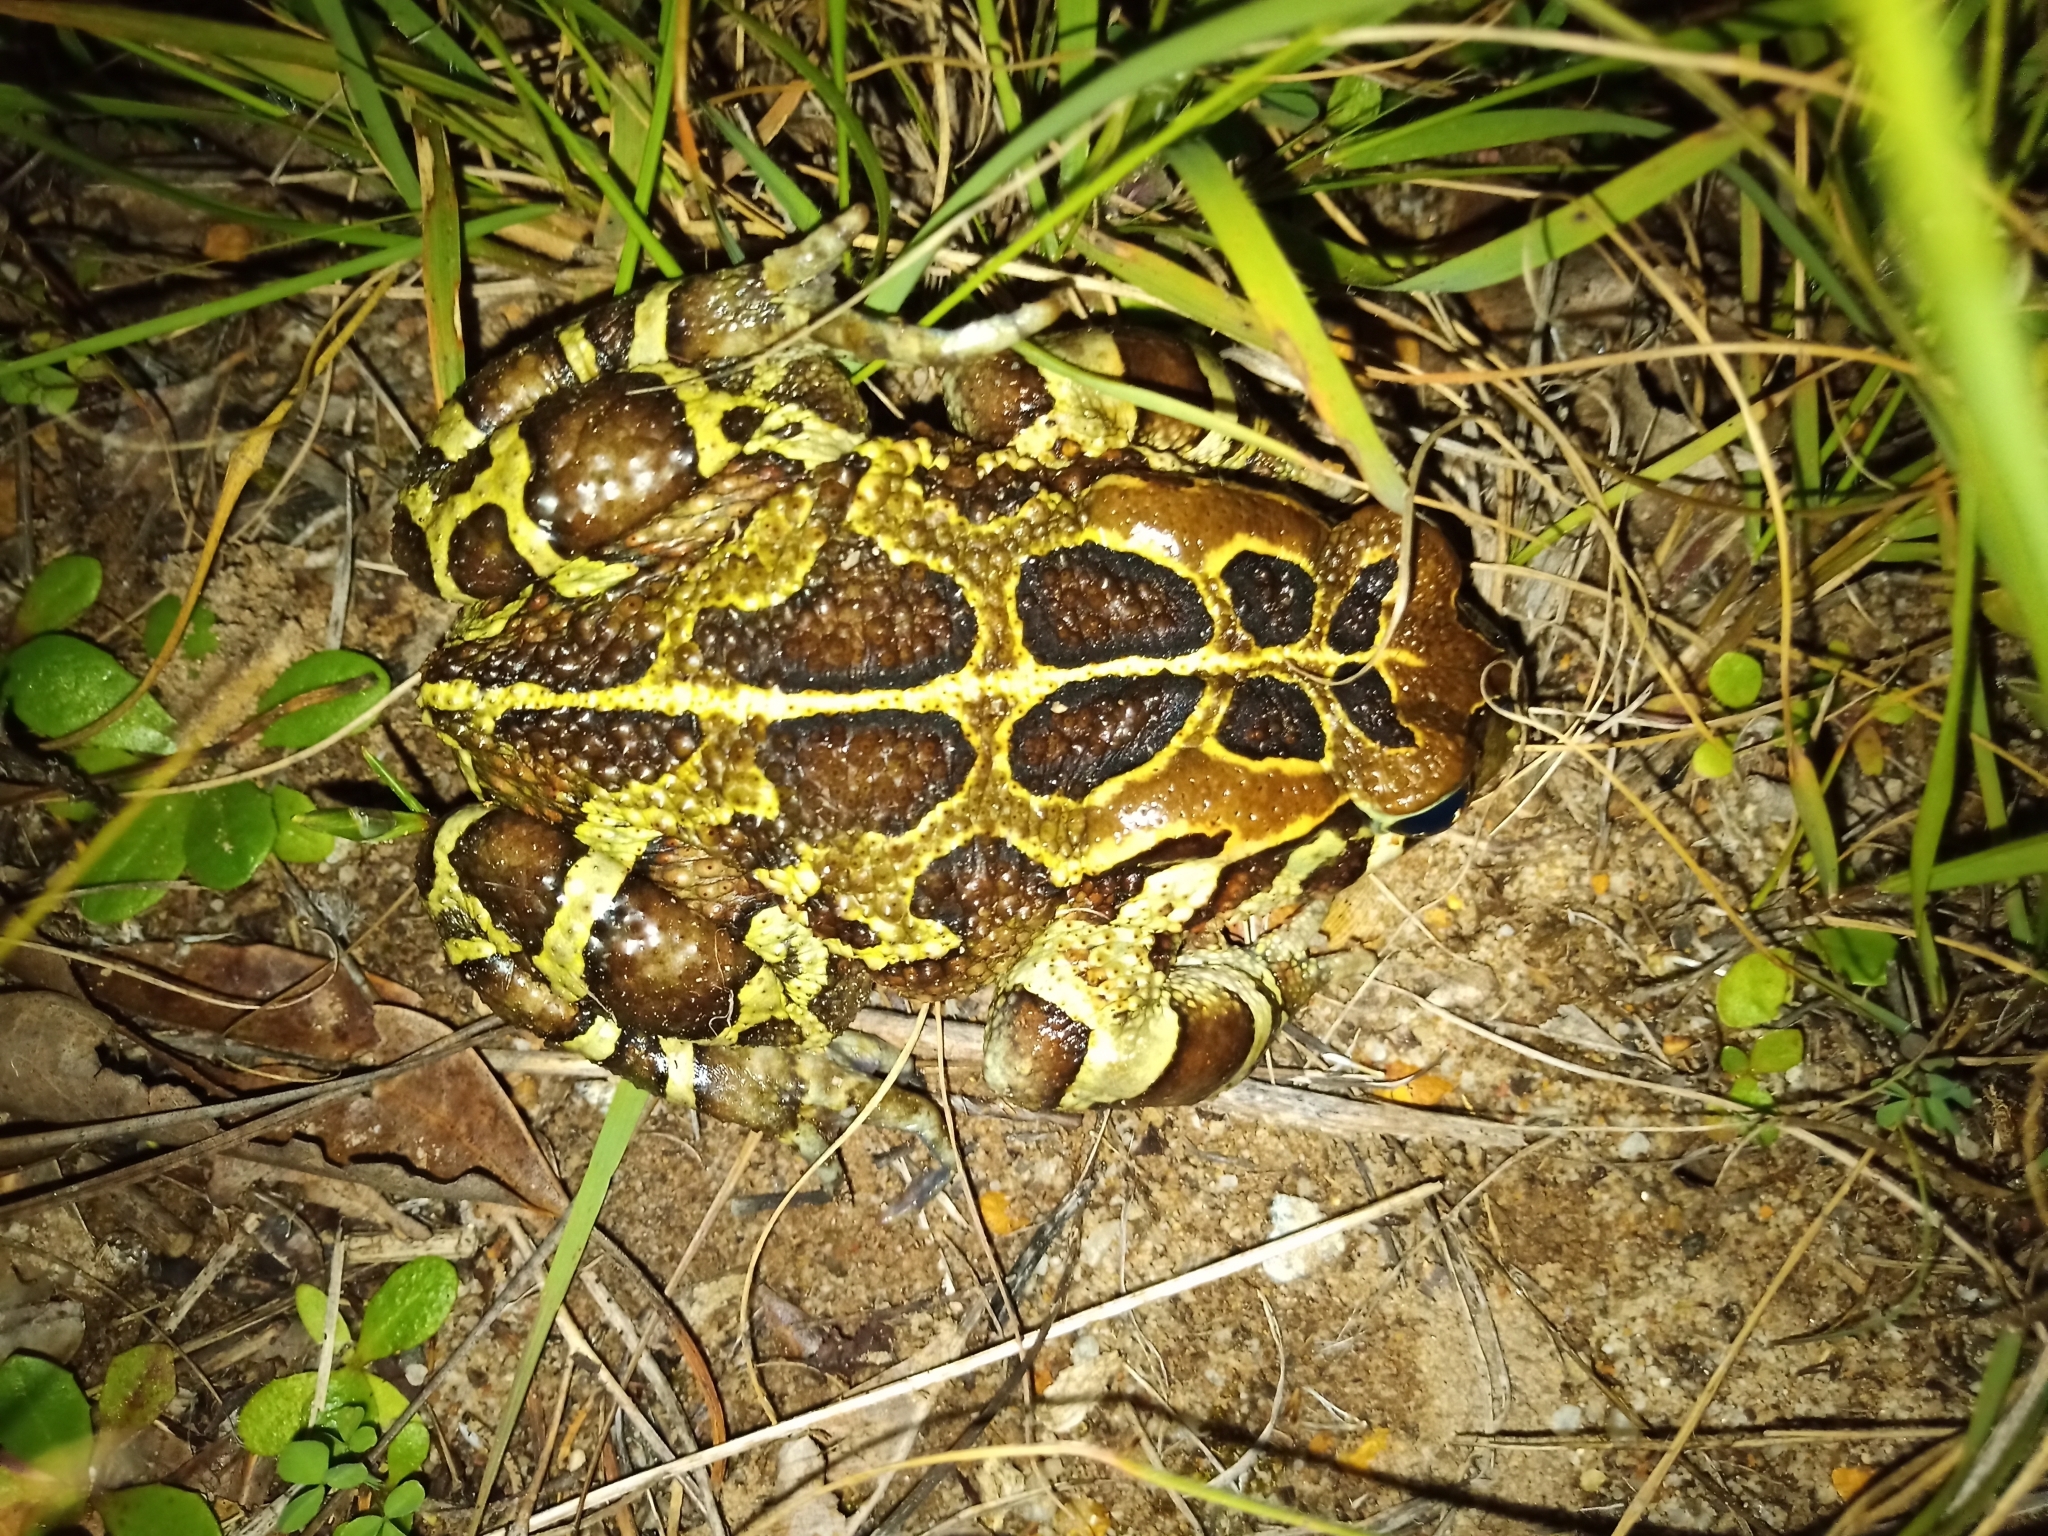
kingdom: Animalia
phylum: Chordata
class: Amphibia
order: Anura
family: Bufonidae
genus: Sclerophrys
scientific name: Sclerophrys pantherina
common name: Panther toad
